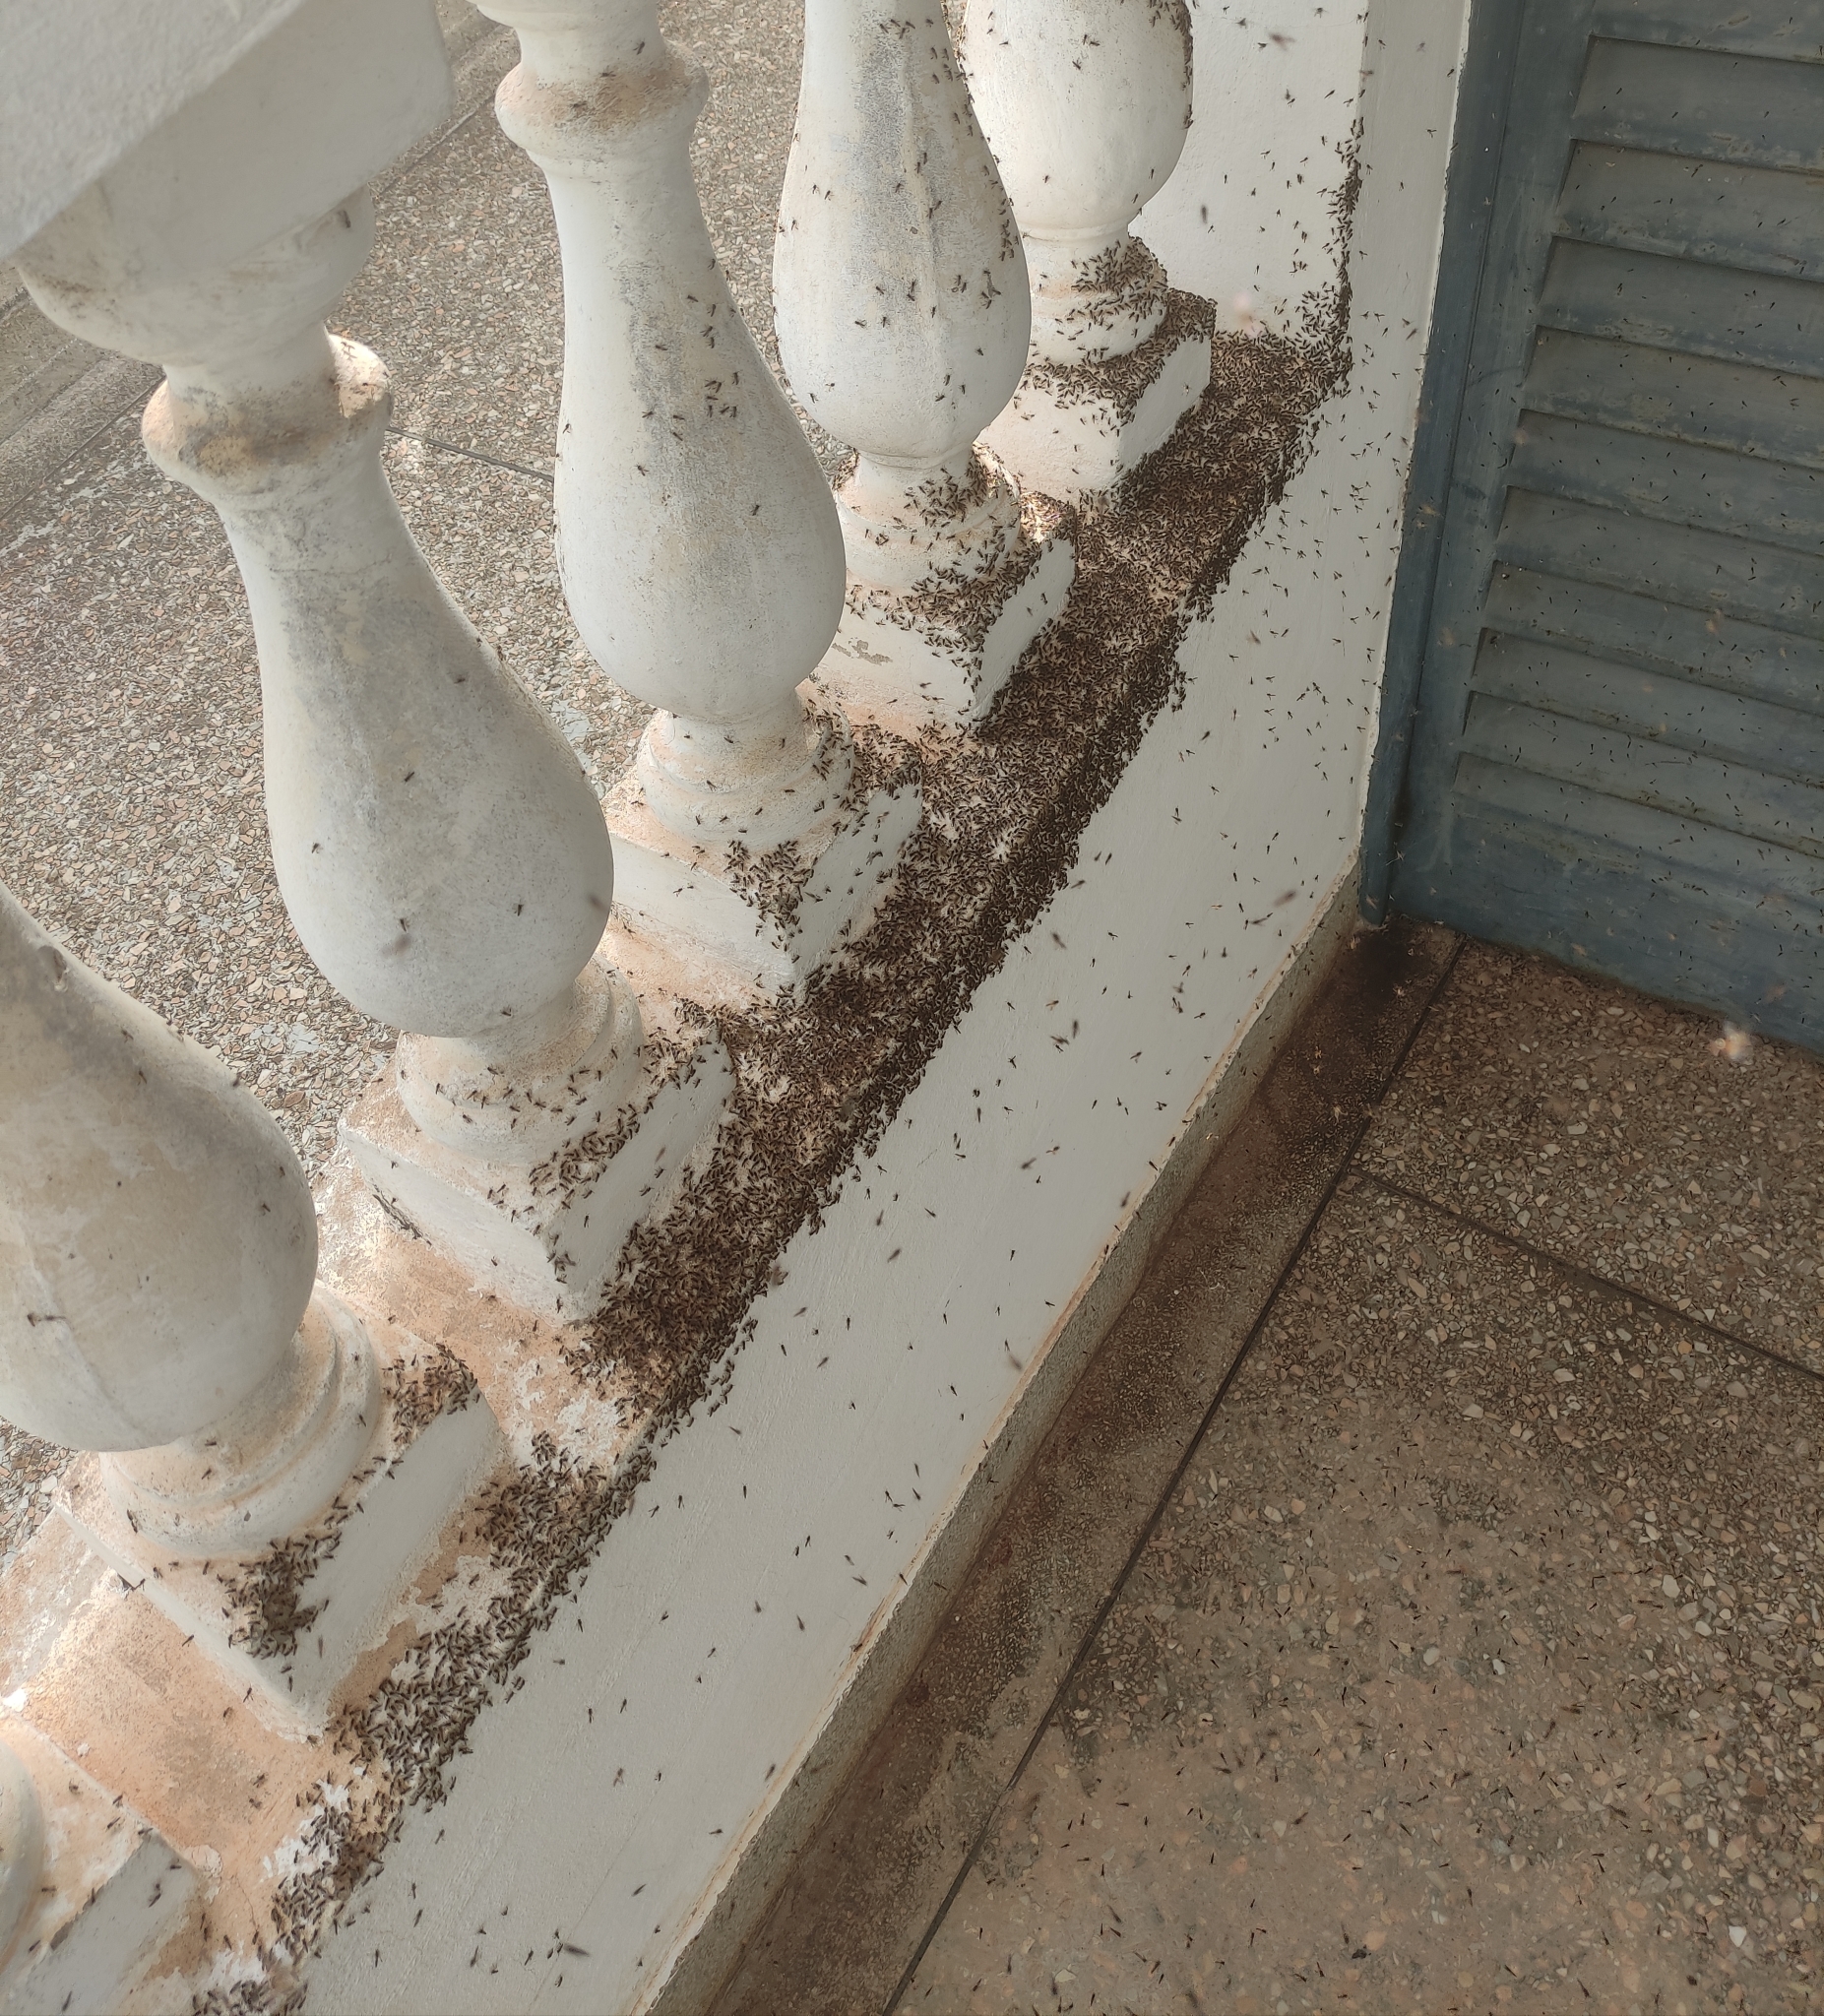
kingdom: Animalia
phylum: Arthropoda
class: Insecta
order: Hymenoptera
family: Apidae
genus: Tetragonisca
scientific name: Tetragonisca angustula
